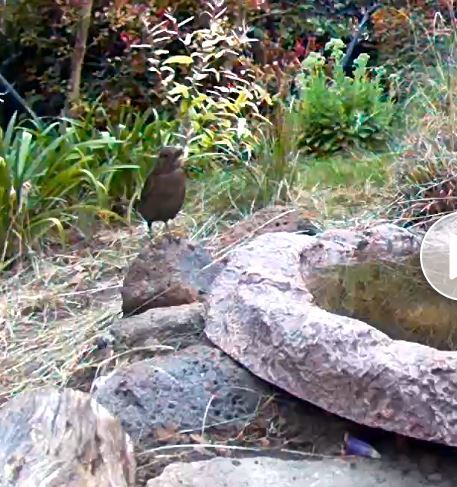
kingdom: Animalia
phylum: Chordata
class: Aves
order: Passeriformes
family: Turdidae
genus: Turdus
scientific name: Turdus merula
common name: Common blackbird
